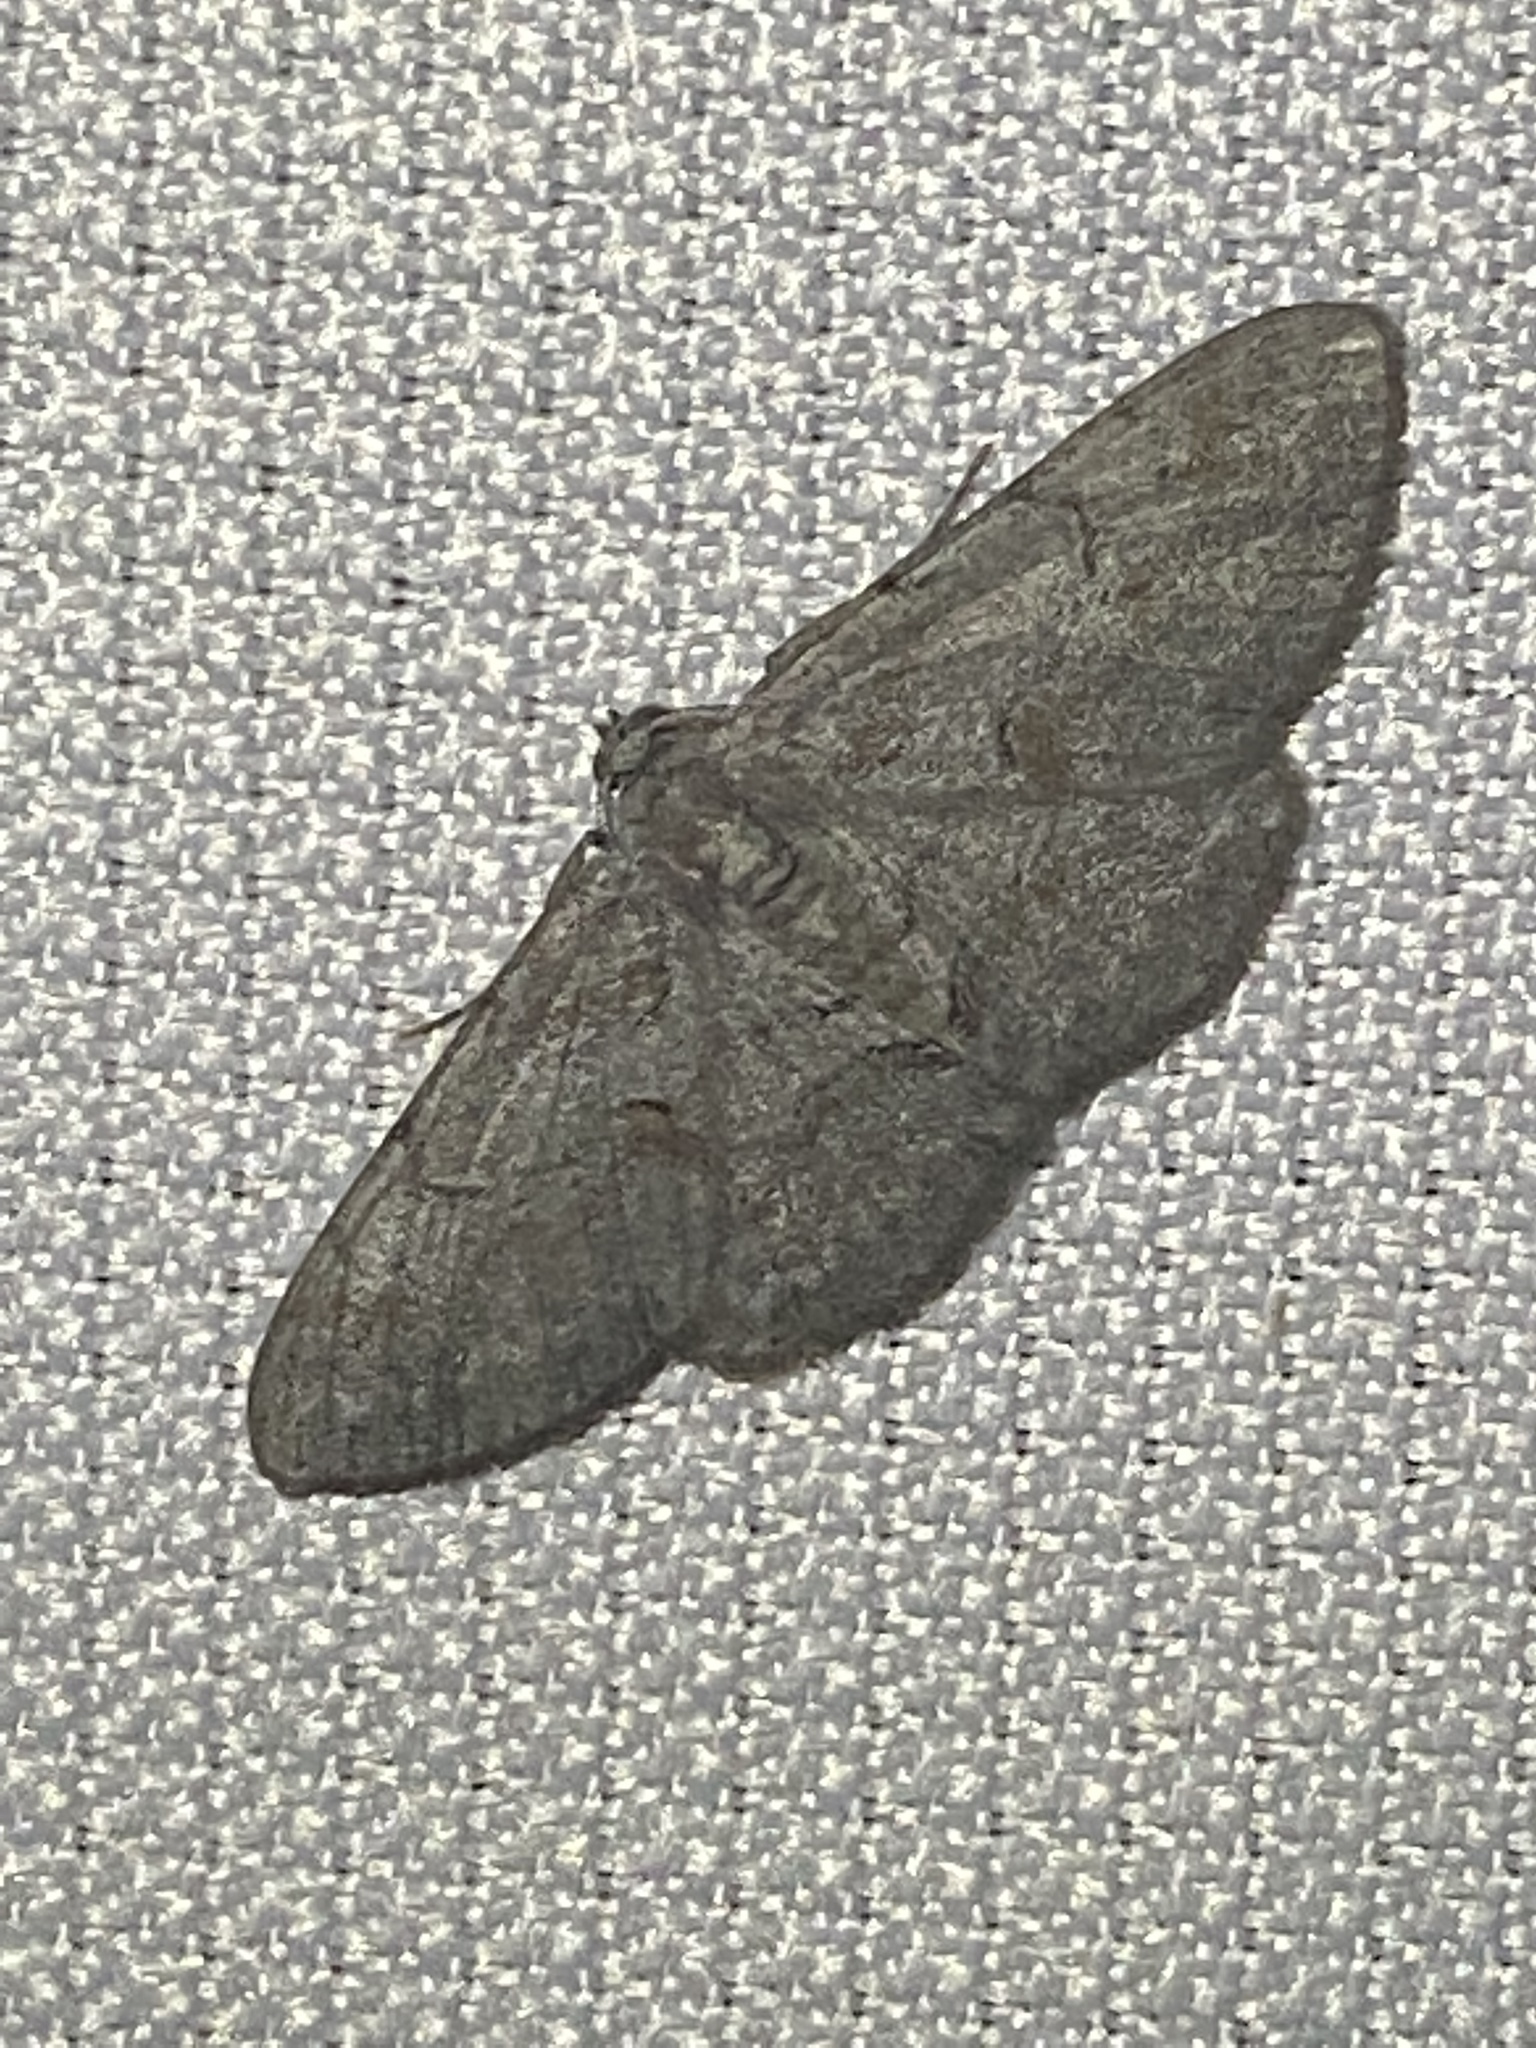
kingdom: Animalia
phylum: Arthropoda
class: Insecta
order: Lepidoptera
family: Geometridae
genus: Iridopsis
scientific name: Iridopsis vellivolata
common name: Large purplish gray
